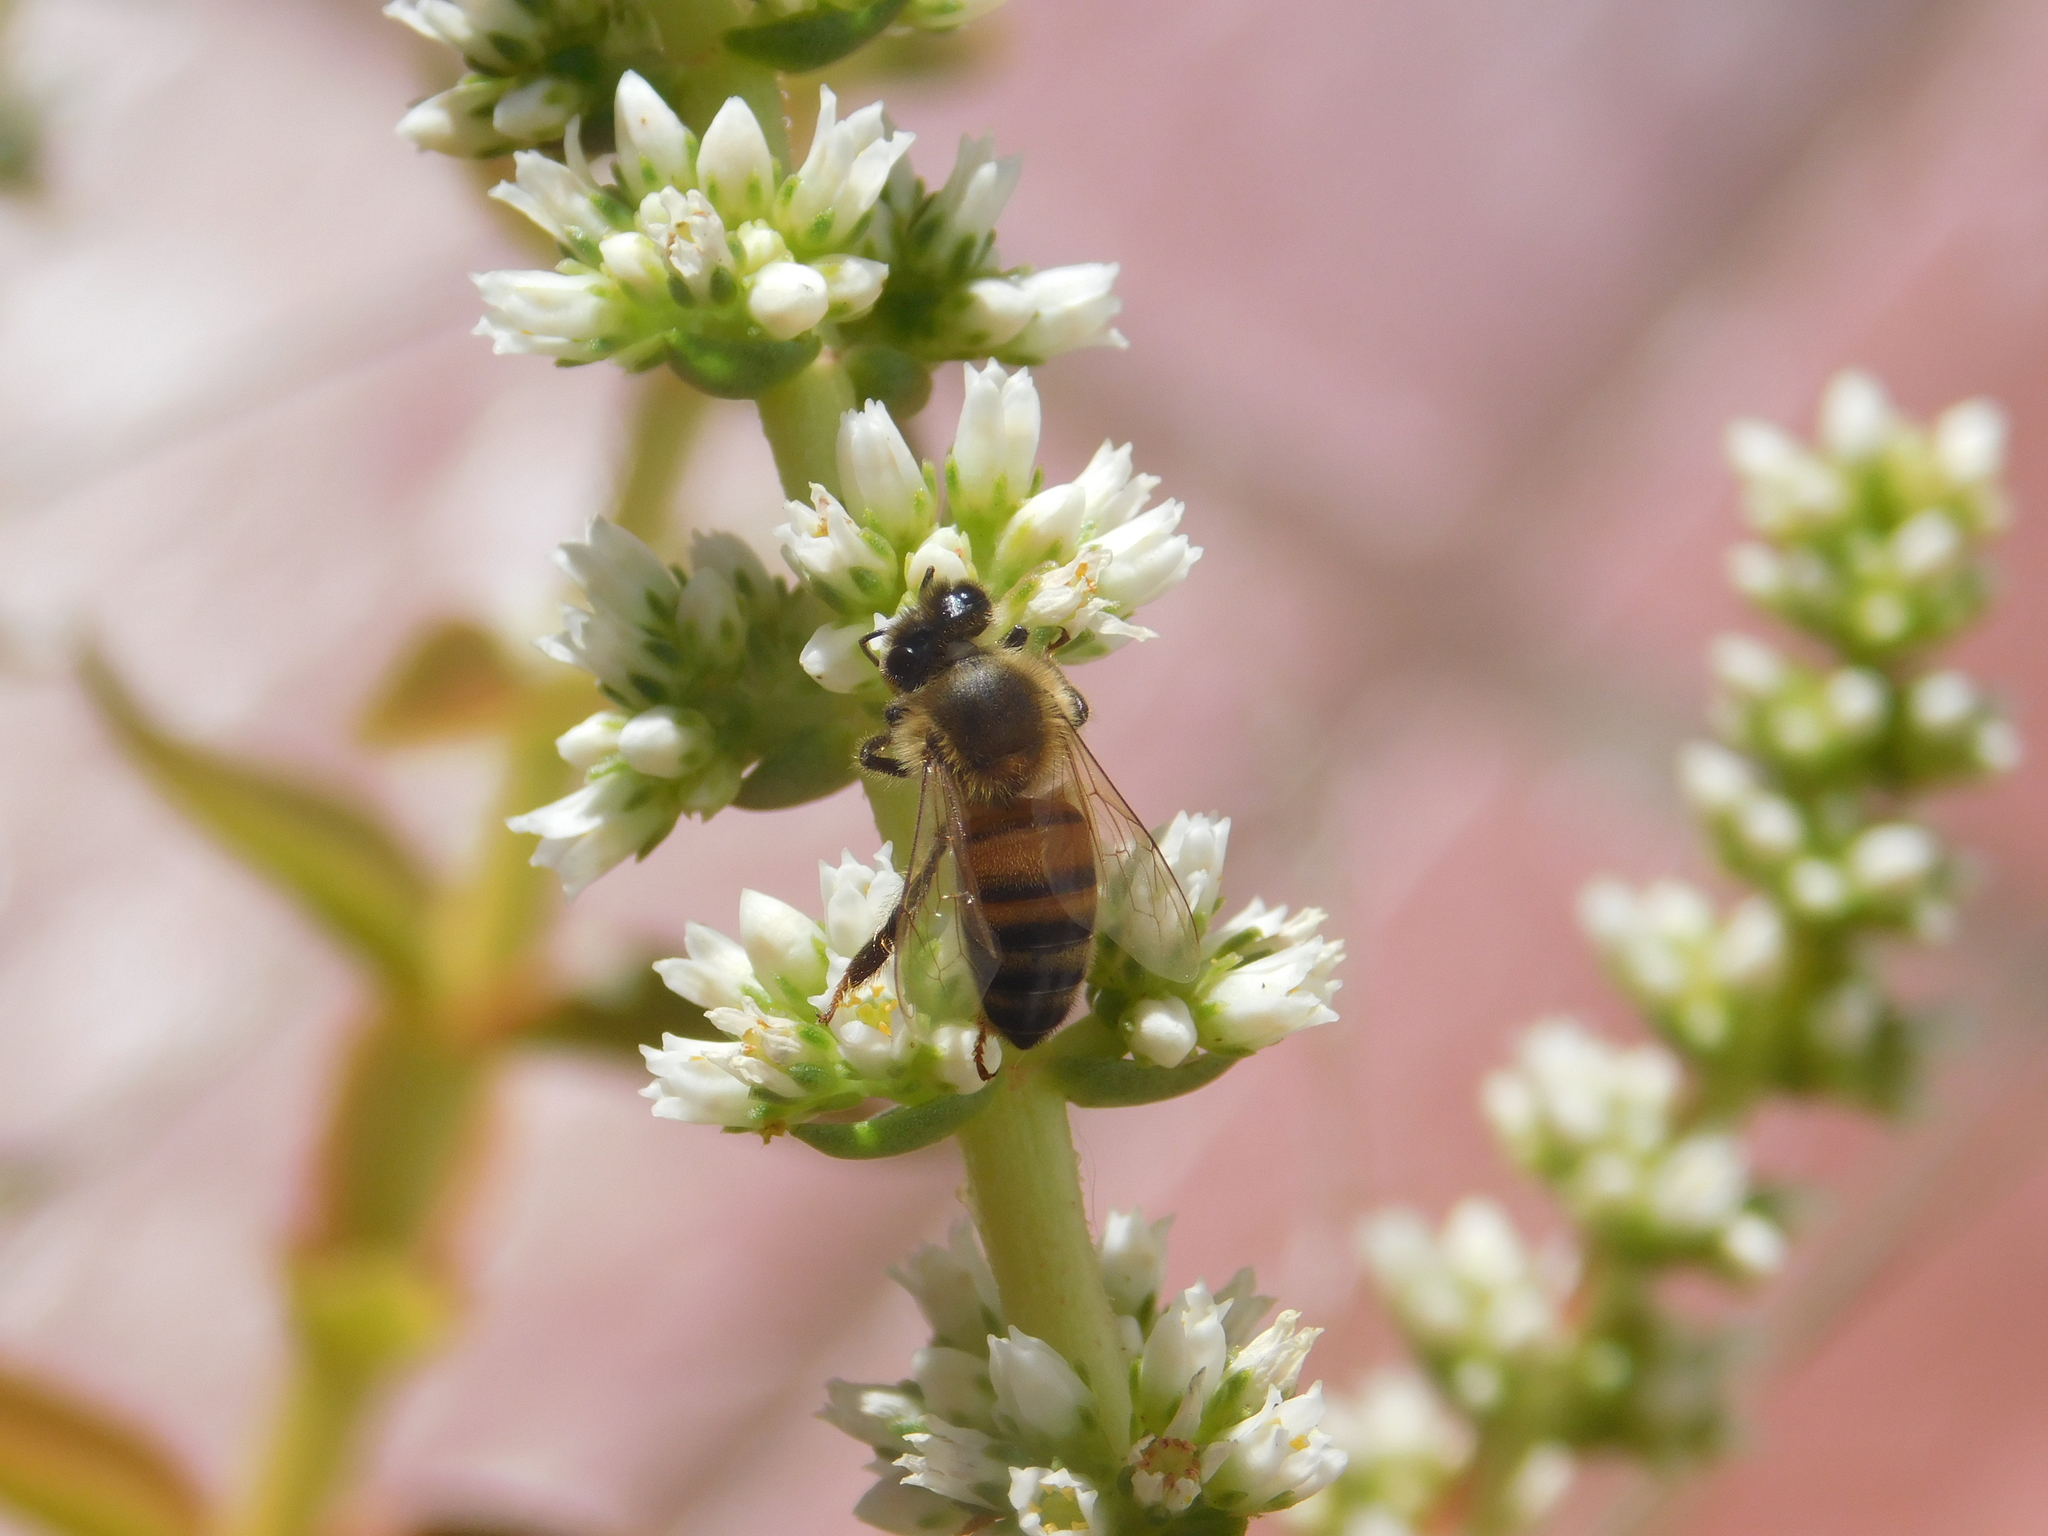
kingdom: Animalia
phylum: Arthropoda
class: Insecta
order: Hymenoptera
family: Apidae
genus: Apis
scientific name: Apis mellifera
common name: Honey bee
